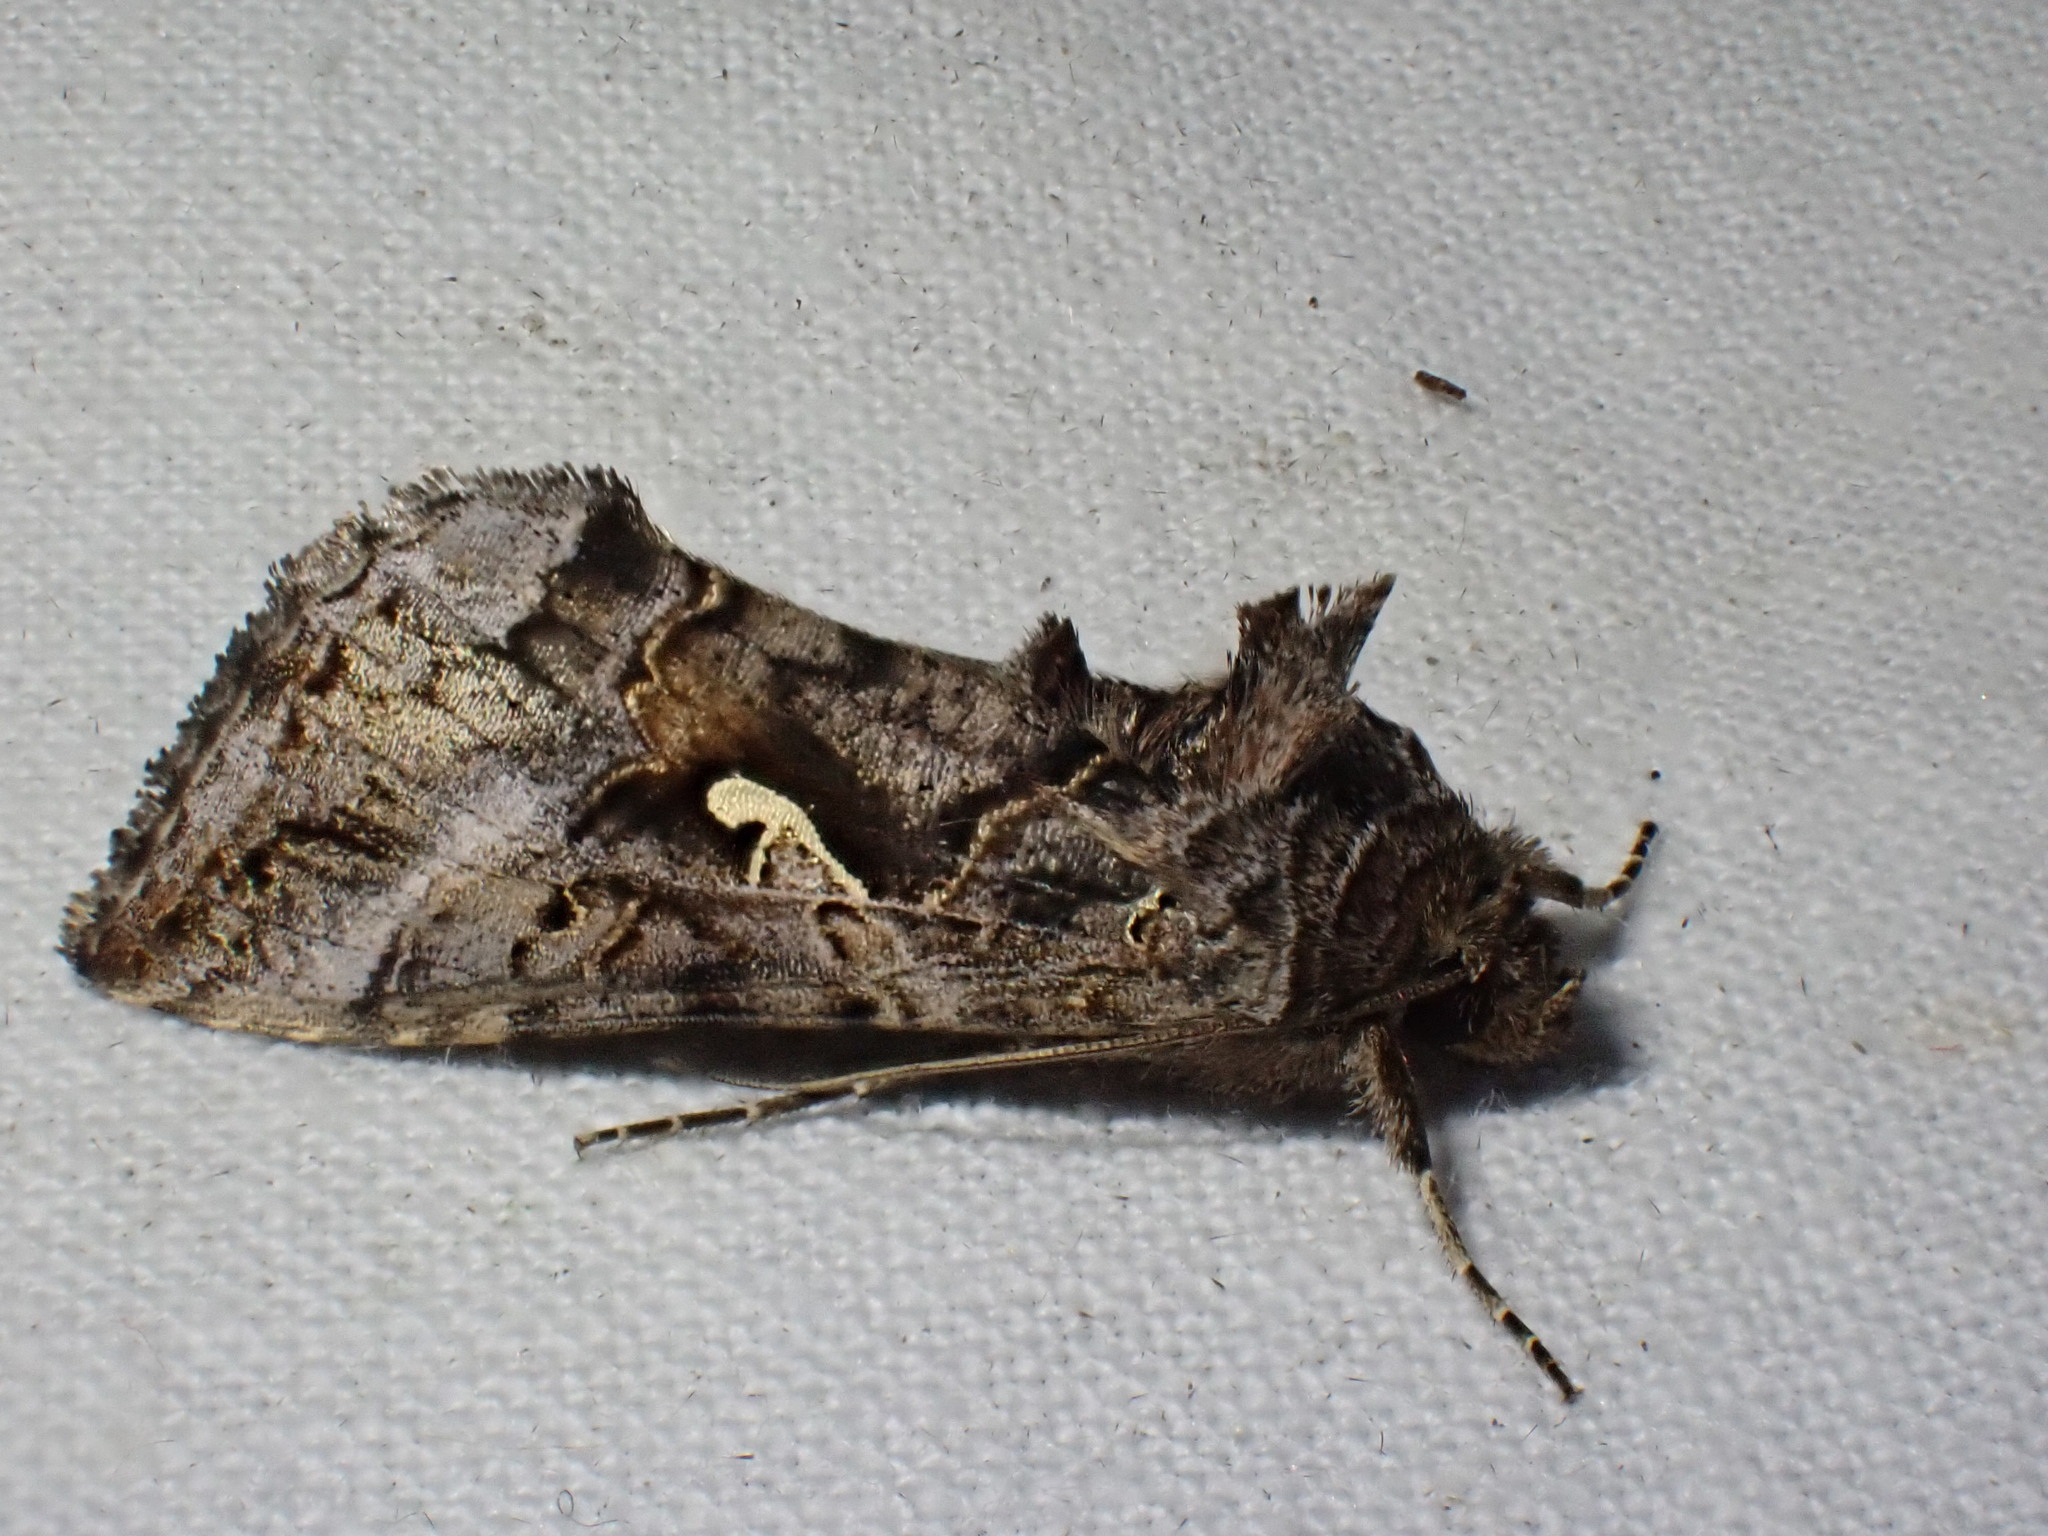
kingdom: Animalia
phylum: Arthropoda
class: Insecta
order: Lepidoptera
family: Noctuidae
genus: Autographa
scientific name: Autographa gamma
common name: Silver y
